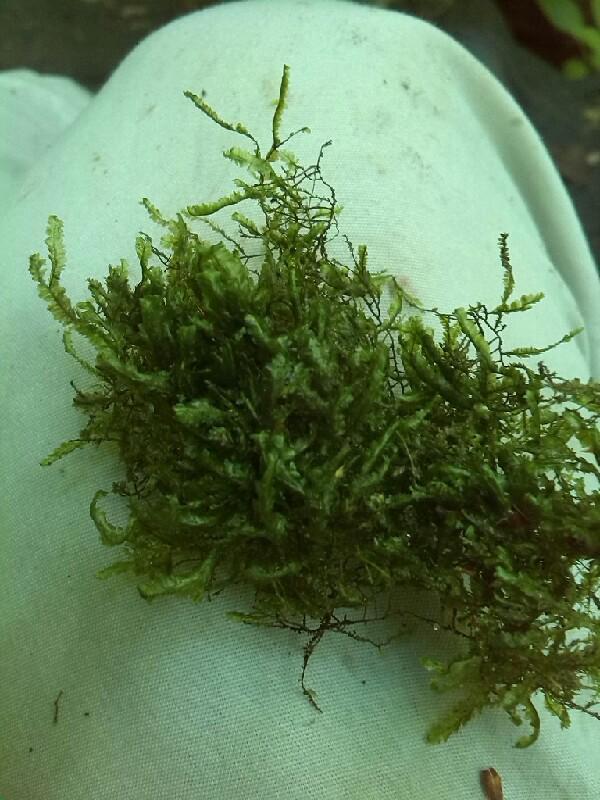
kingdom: Plantae
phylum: Bryophyta
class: Bryopsida
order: Hypnales
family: Neckeraceae
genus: Homalia
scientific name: Homalia trichomanoides
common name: Lime homalia moss
